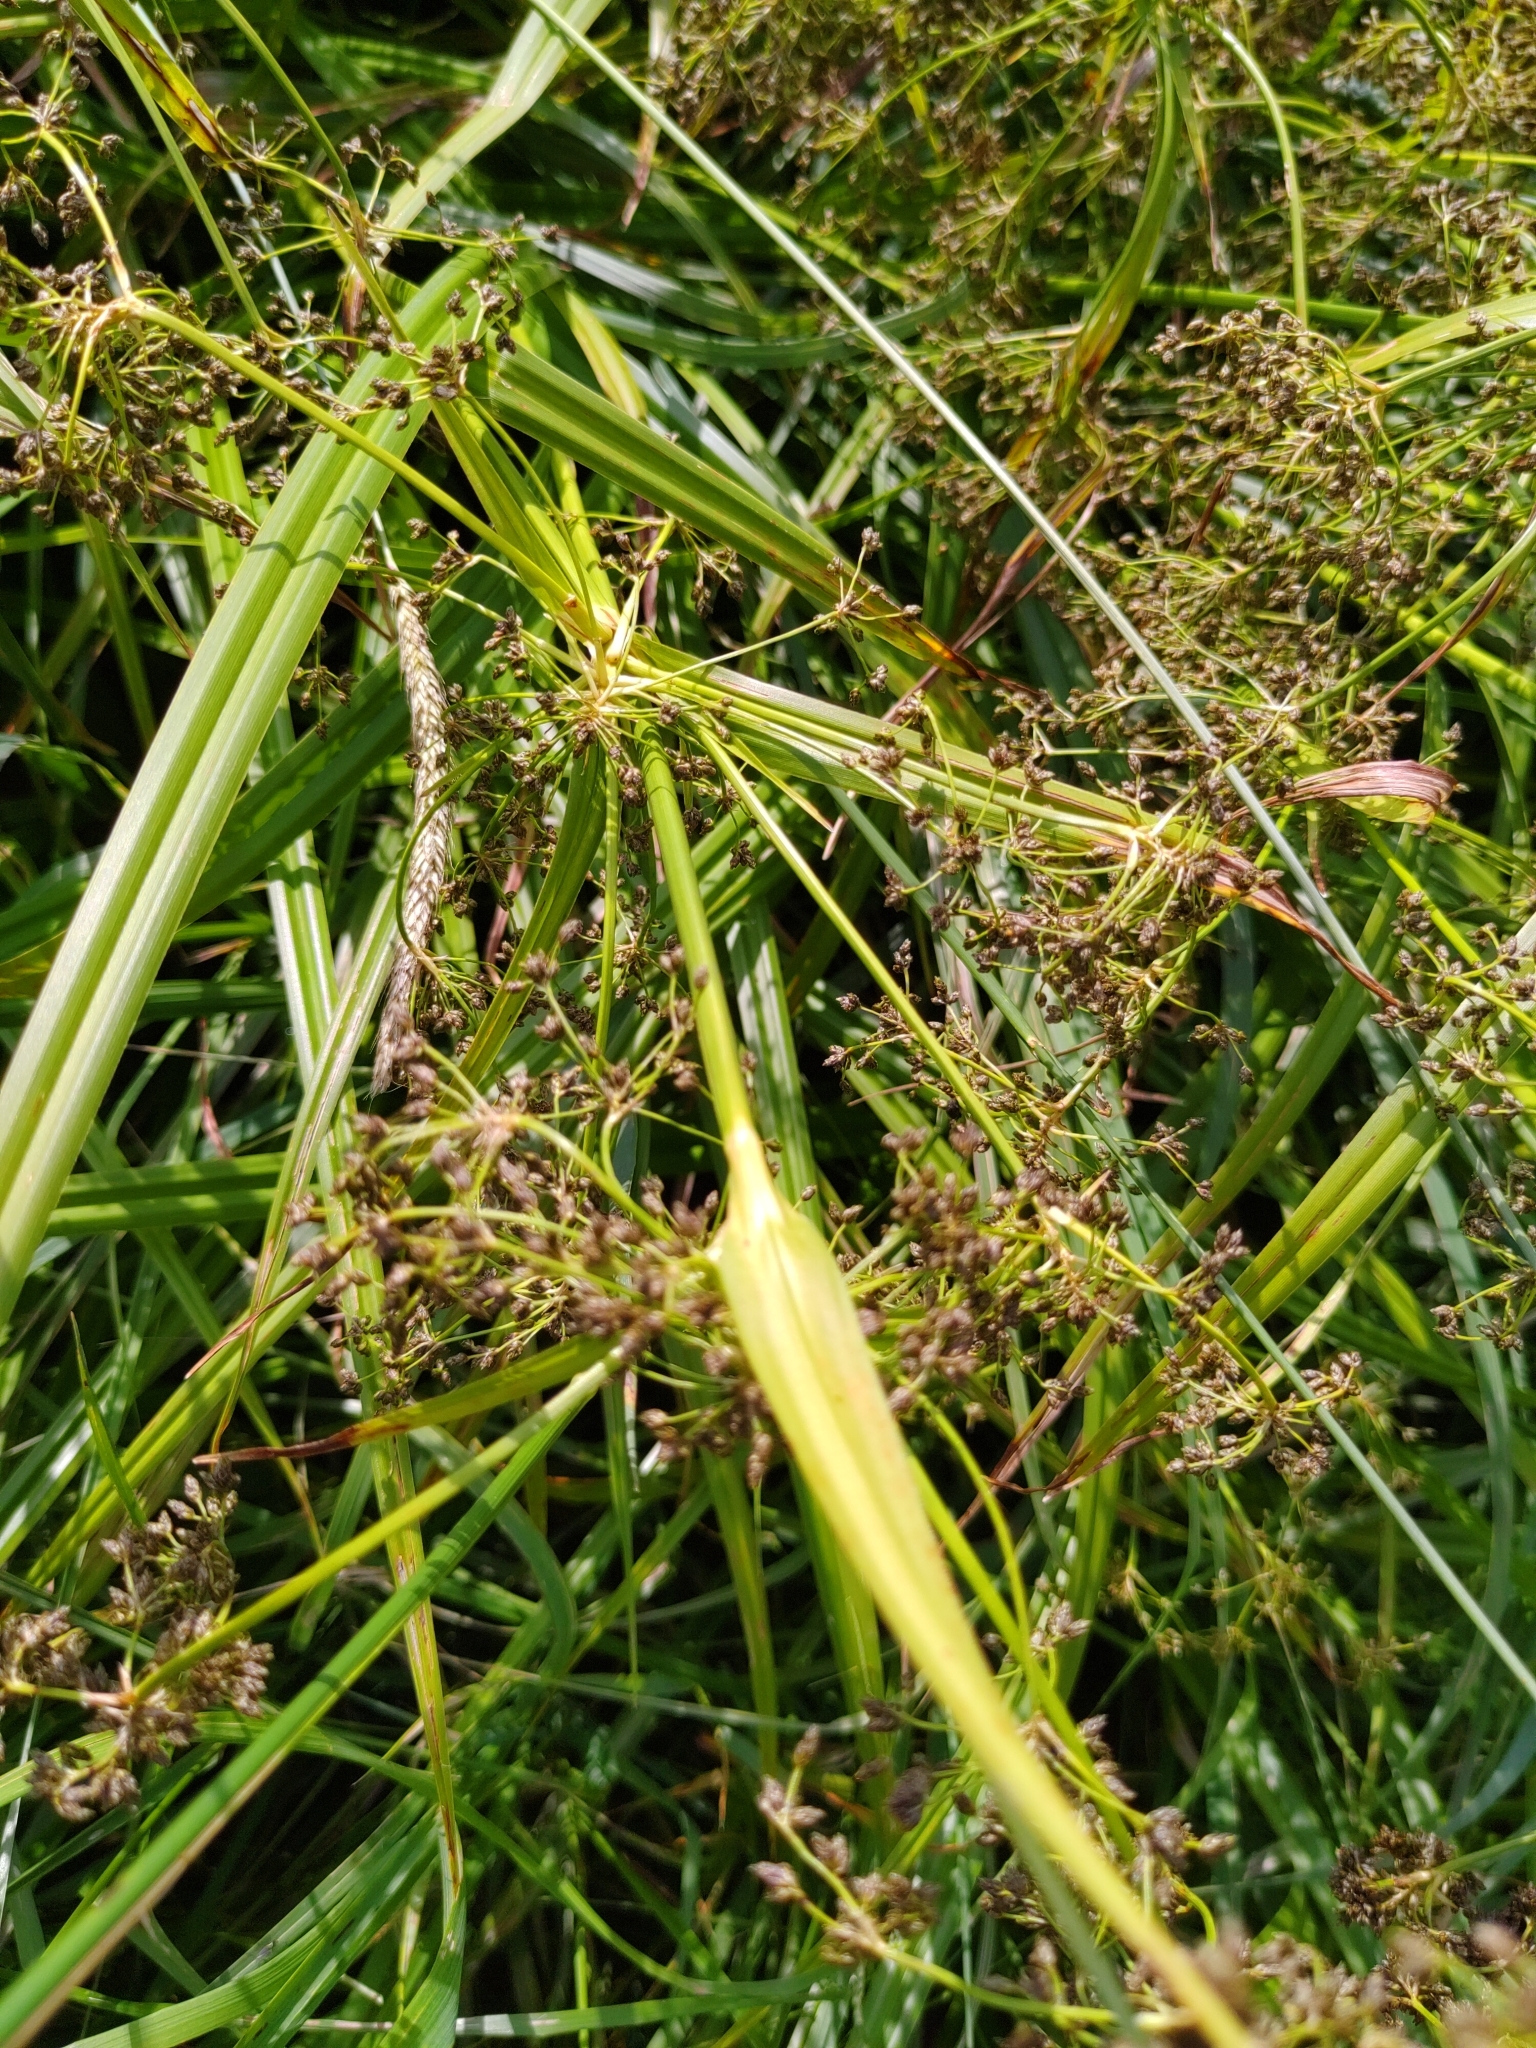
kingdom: Plantae
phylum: Tracheophyta
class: Liliopsida
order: Poales
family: Cyperaceae
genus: Scirpus
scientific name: Scirpus sylvaticus
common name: Wood club-rush
